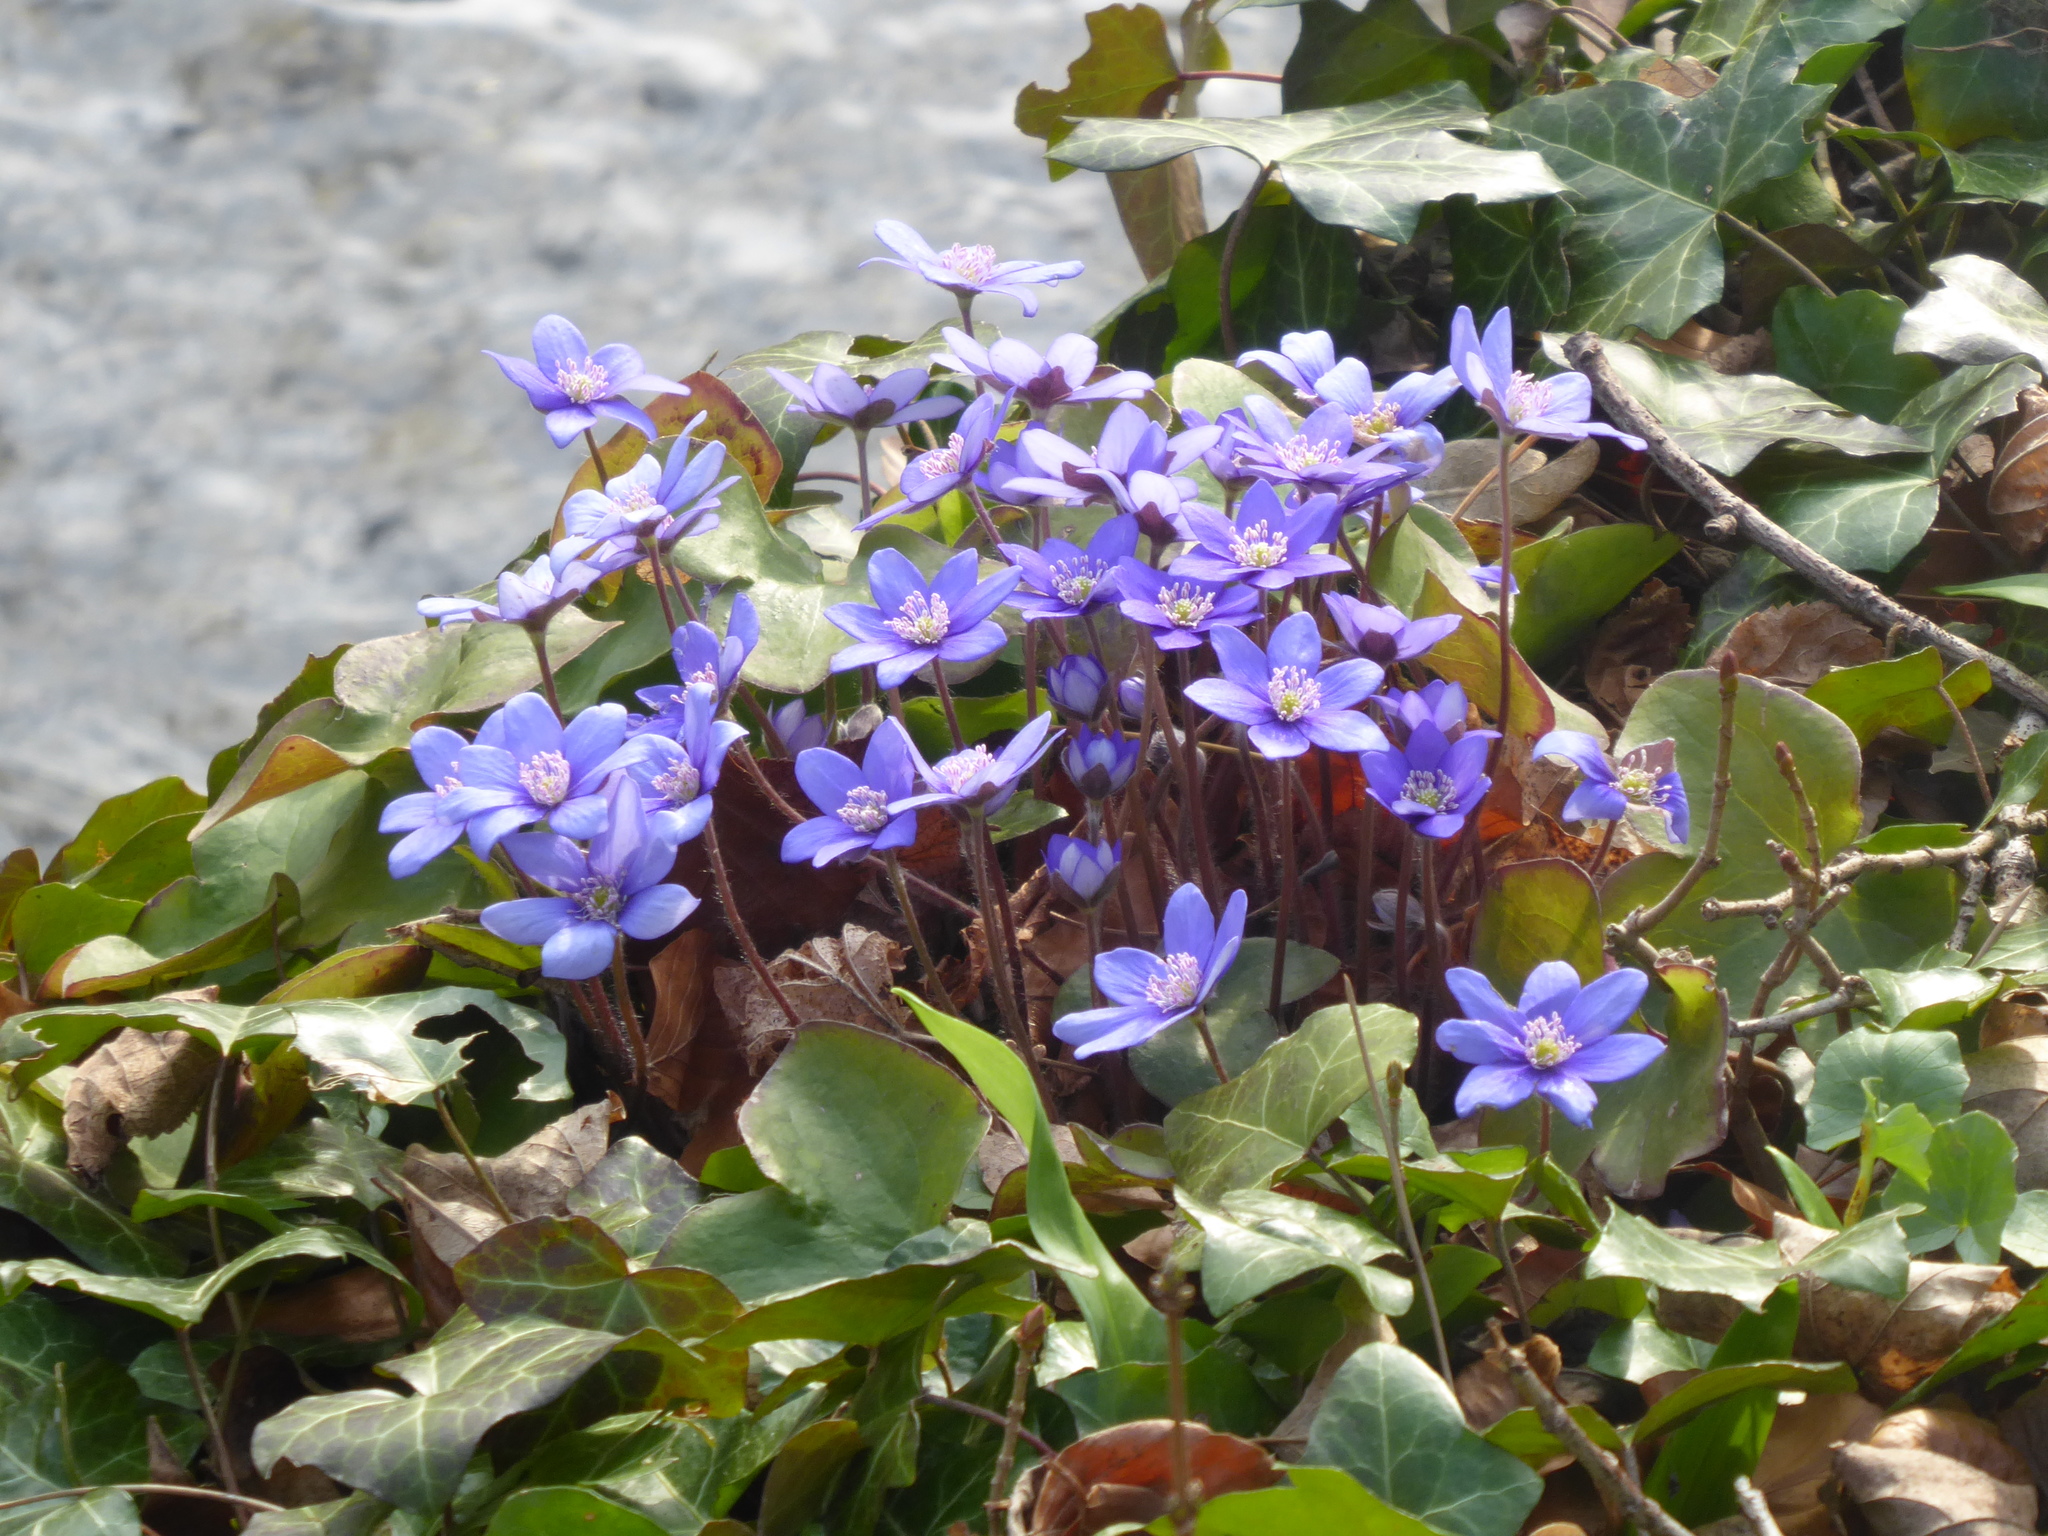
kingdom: Plantae
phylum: Tracheophyta
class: Magnoliopsida
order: Ranunculales
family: Ranunculaceae
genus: Hepatica
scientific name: Hepatica nobilis
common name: Liverleaf
